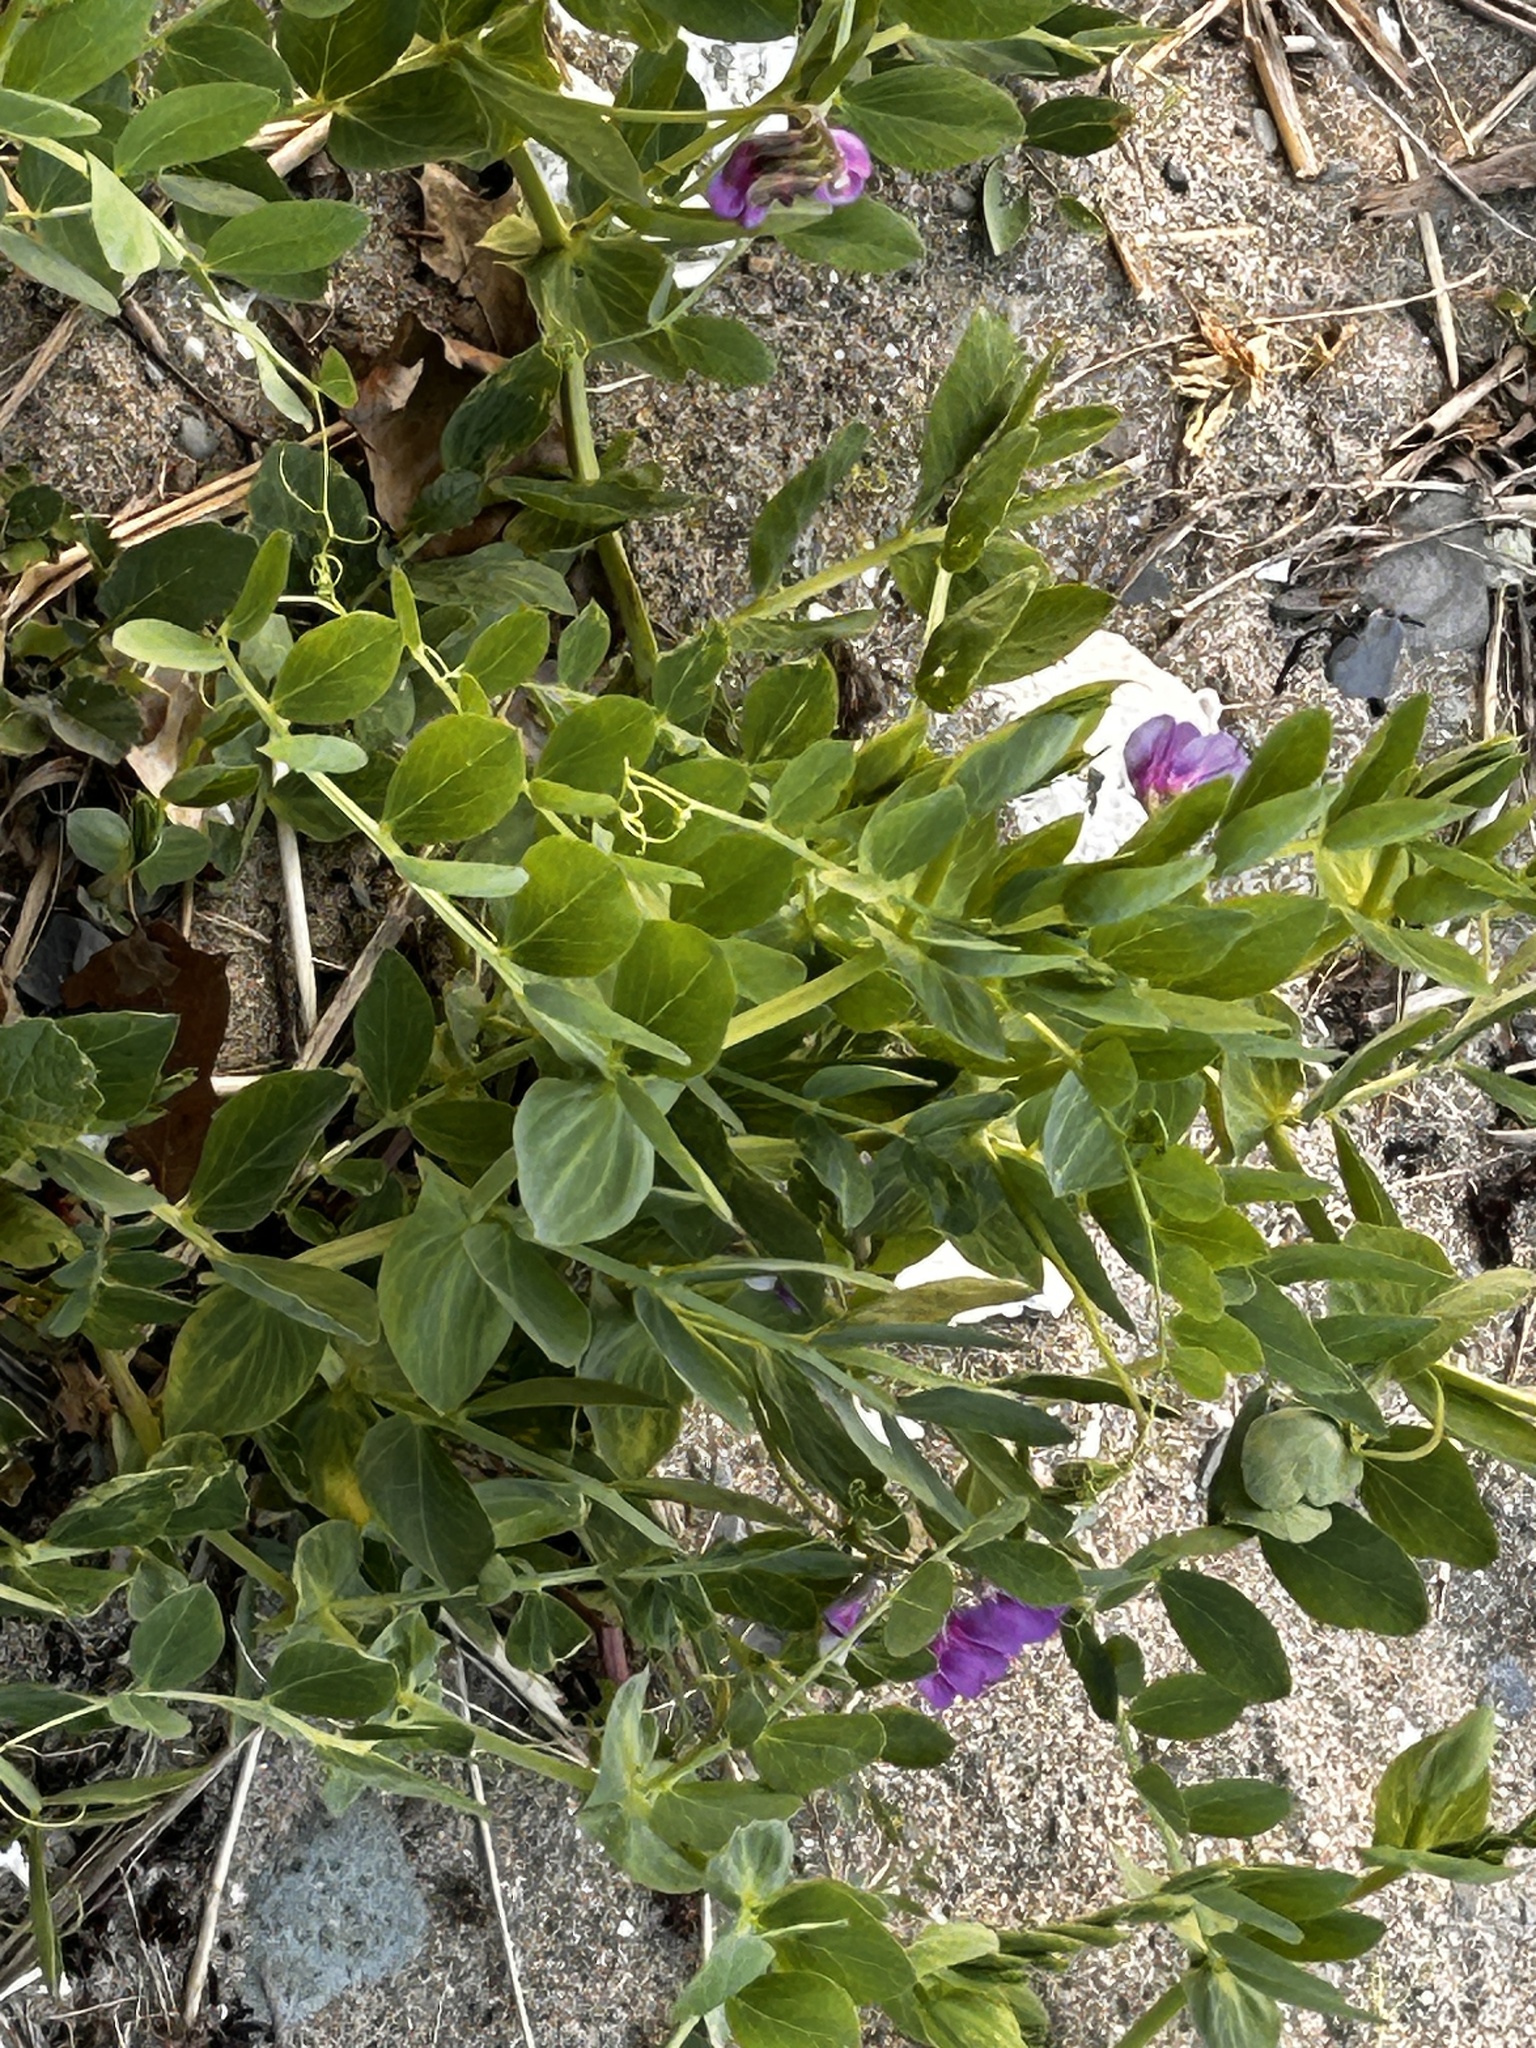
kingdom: Plantae
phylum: Tracheophyta
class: Magnoliopsida
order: Fabales
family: Fabaceae
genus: Lathyrus
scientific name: Lathyrus japonicus
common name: Sea pea
